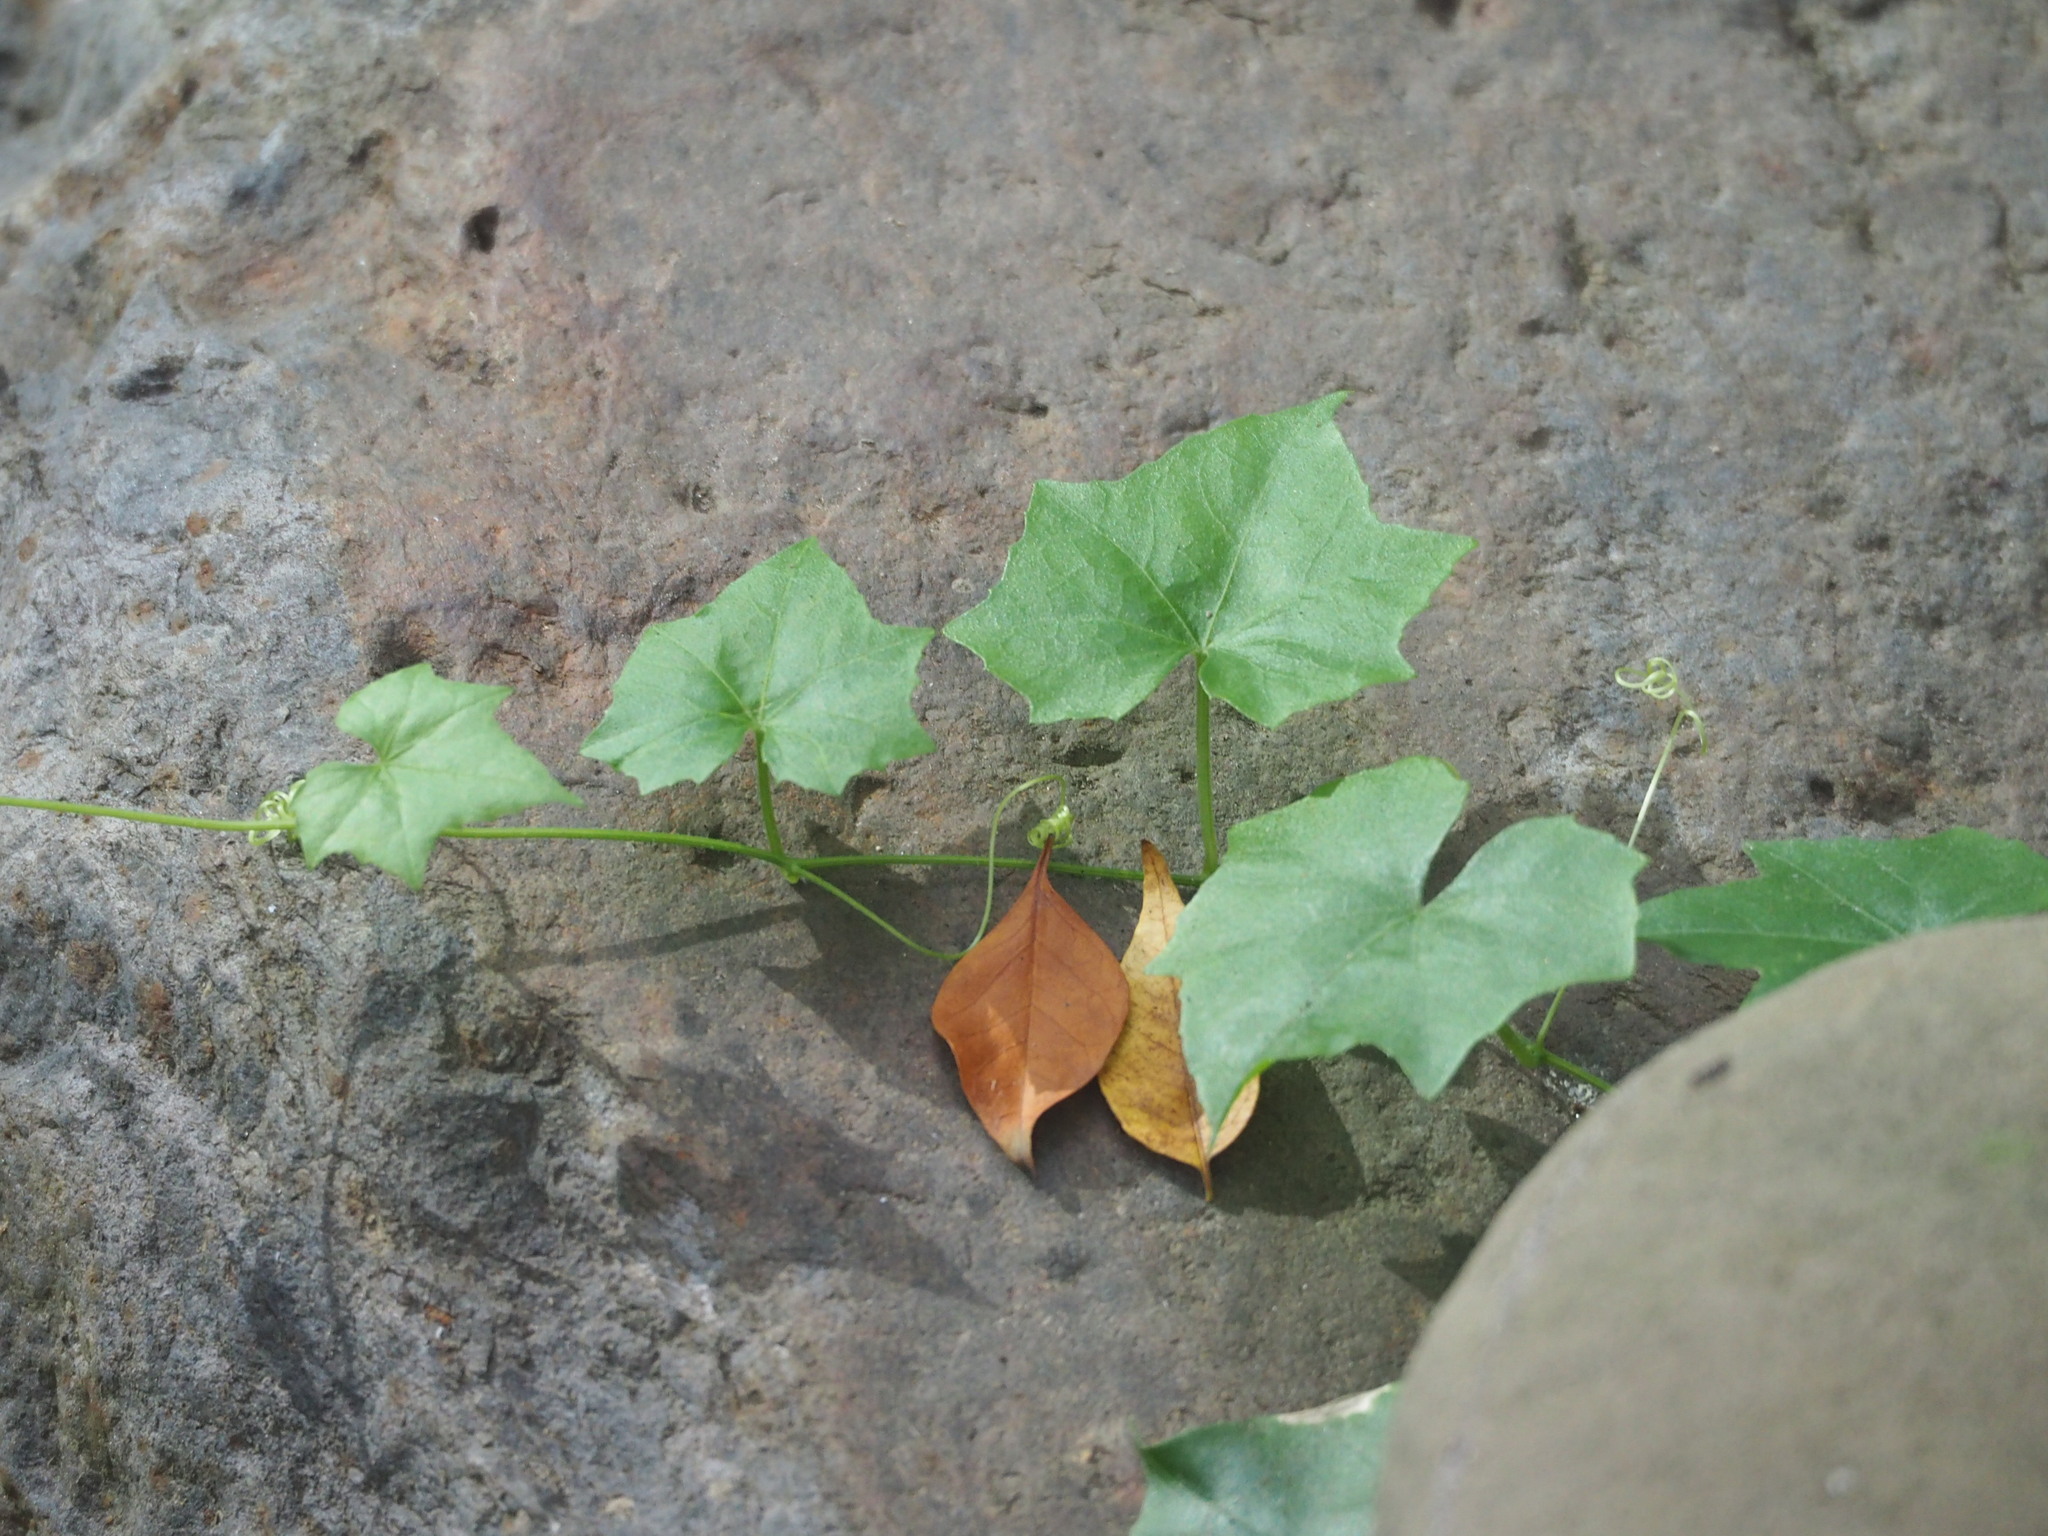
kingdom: Plantae
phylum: Tracheophyta
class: Magnoliopsida
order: Cucurbitales
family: Cucurbitaceae
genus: Melothria
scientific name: Melothria pendula
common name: Creeping-cucumber
